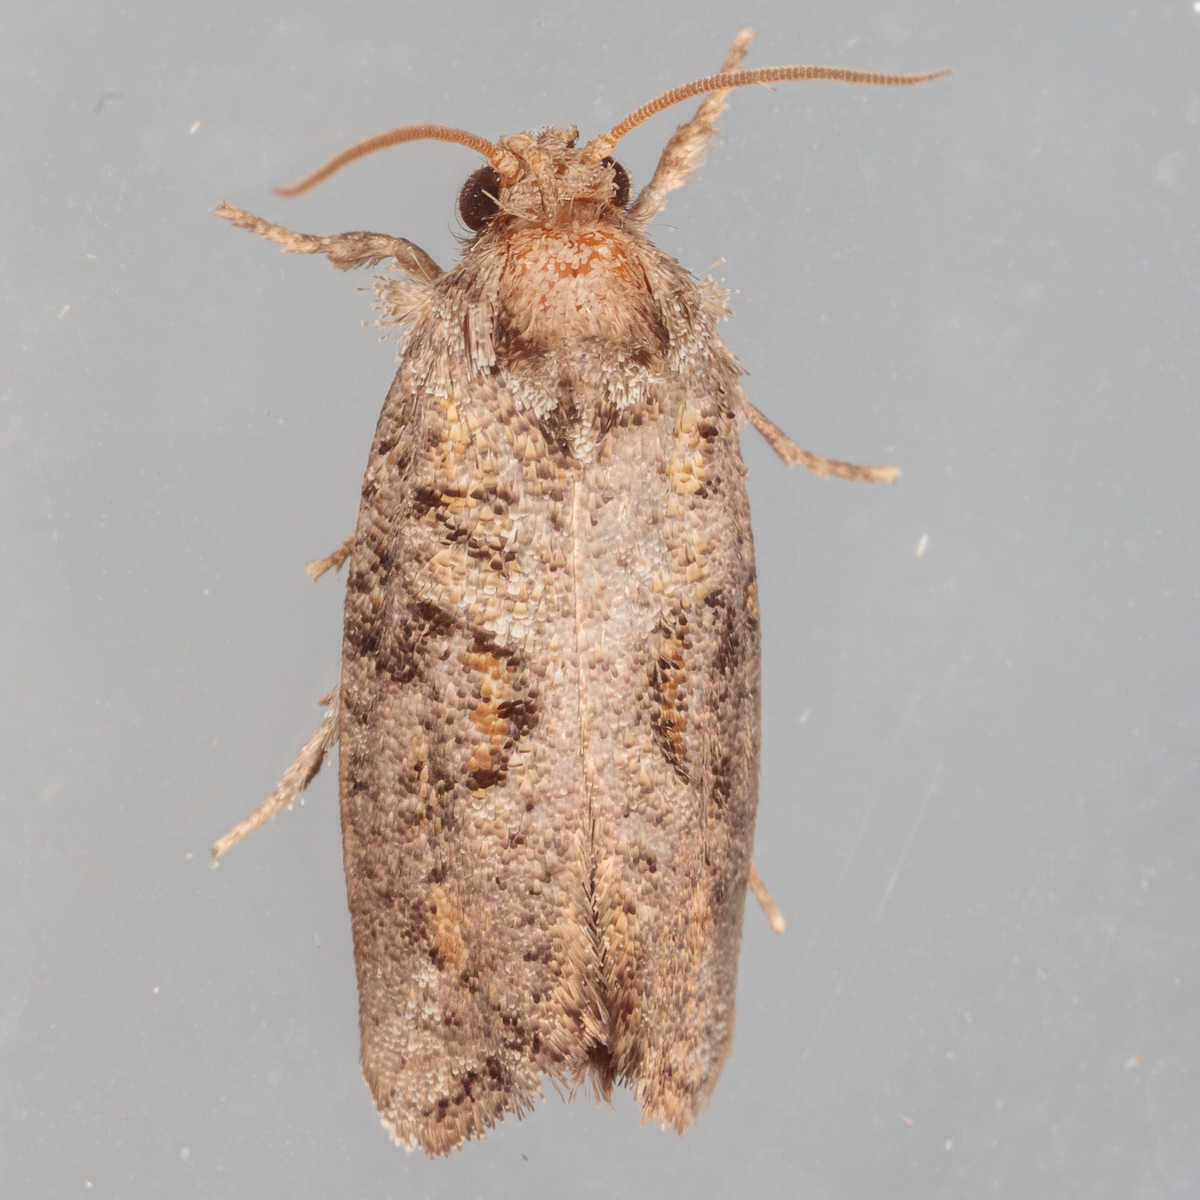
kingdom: Animalia
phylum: Arthropoda
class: Insecta
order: Lepidoptera
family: Tineidae
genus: Acrolophus
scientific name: Acrolophus piger
